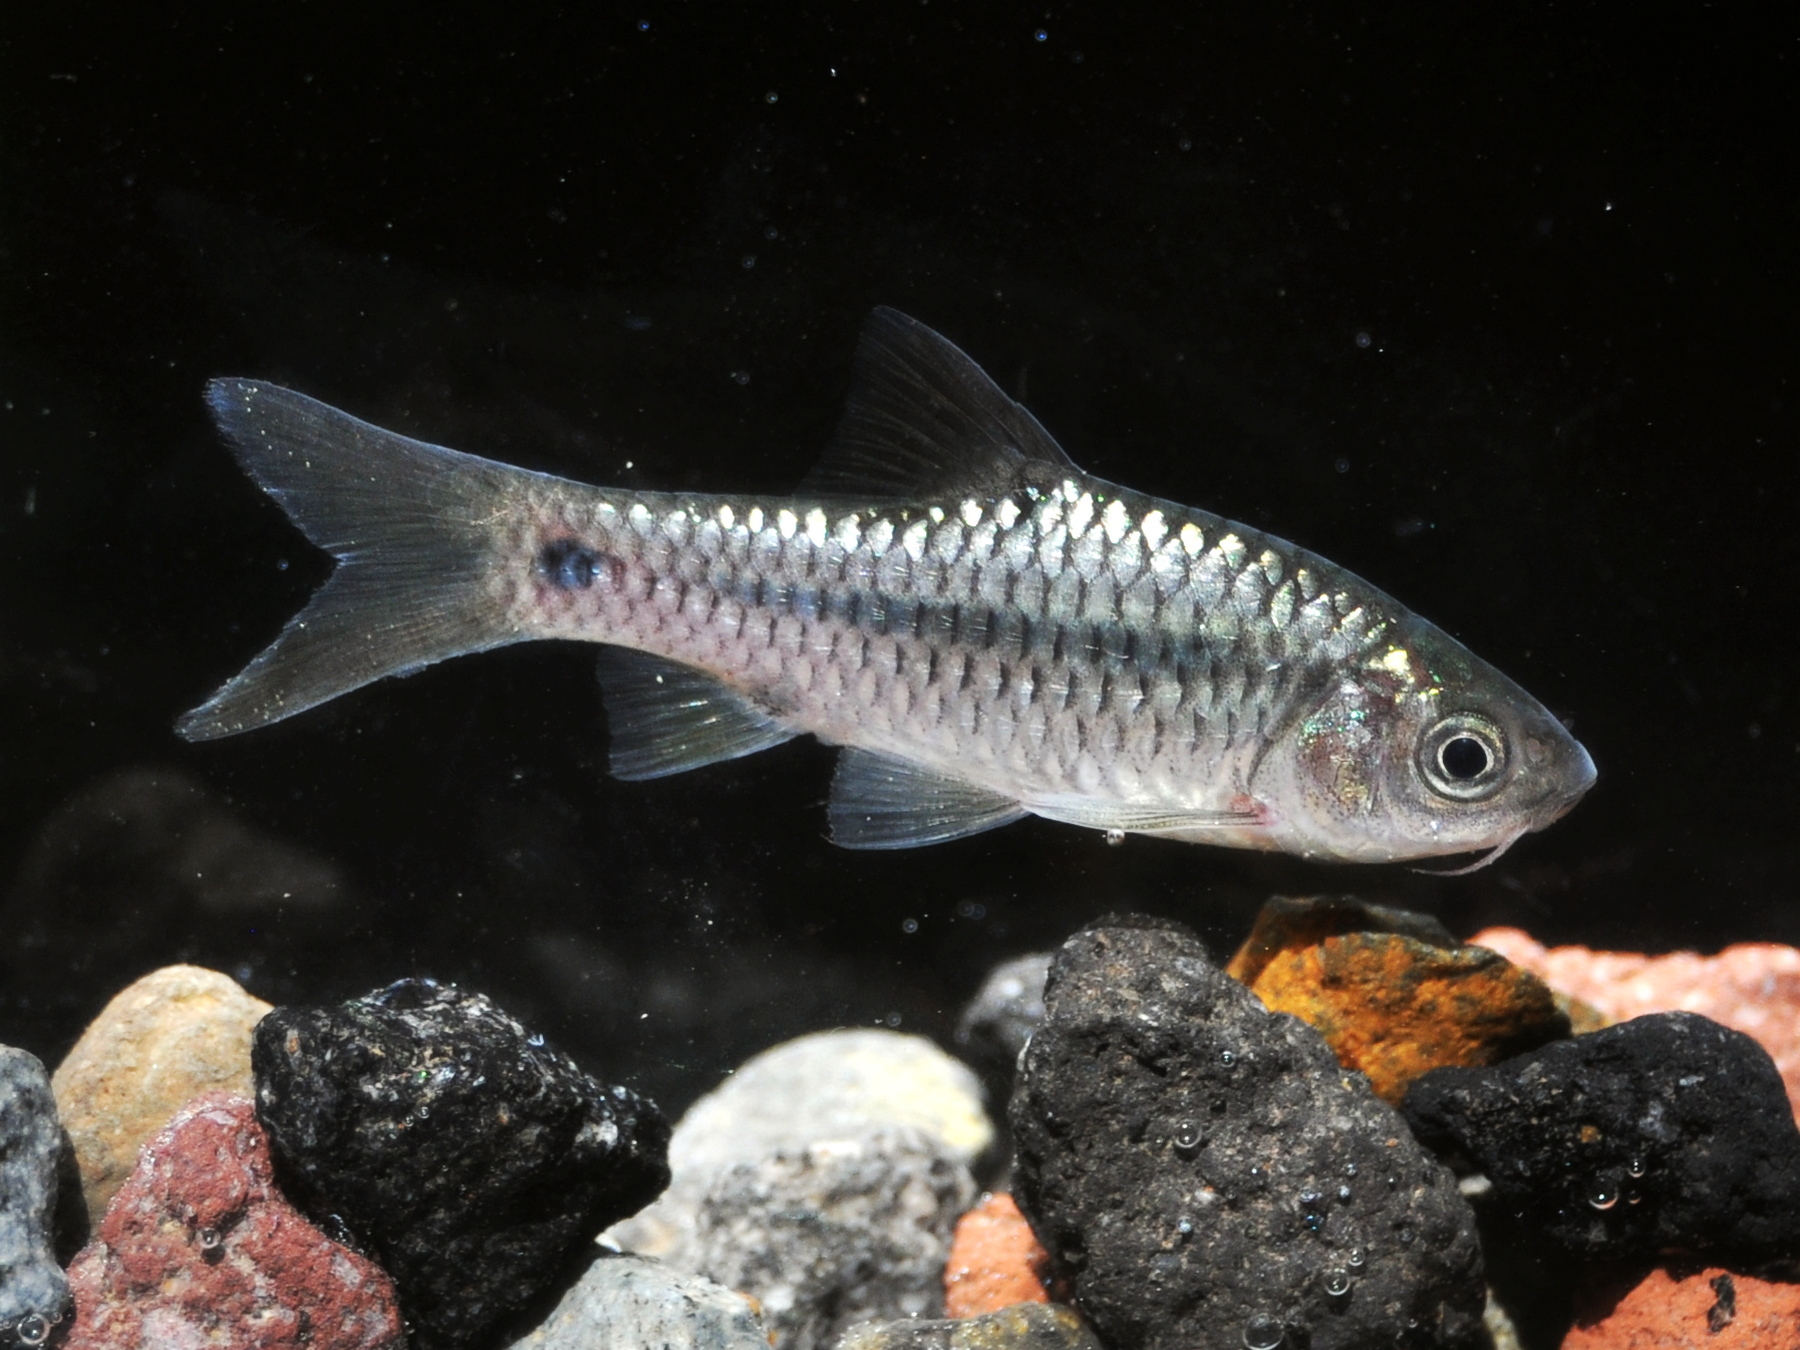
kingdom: Animalia
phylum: Chordata
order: Cypriniformes
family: Cyprinidae
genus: Barbodes
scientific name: Barbodes binotatus
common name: Spotted barb
